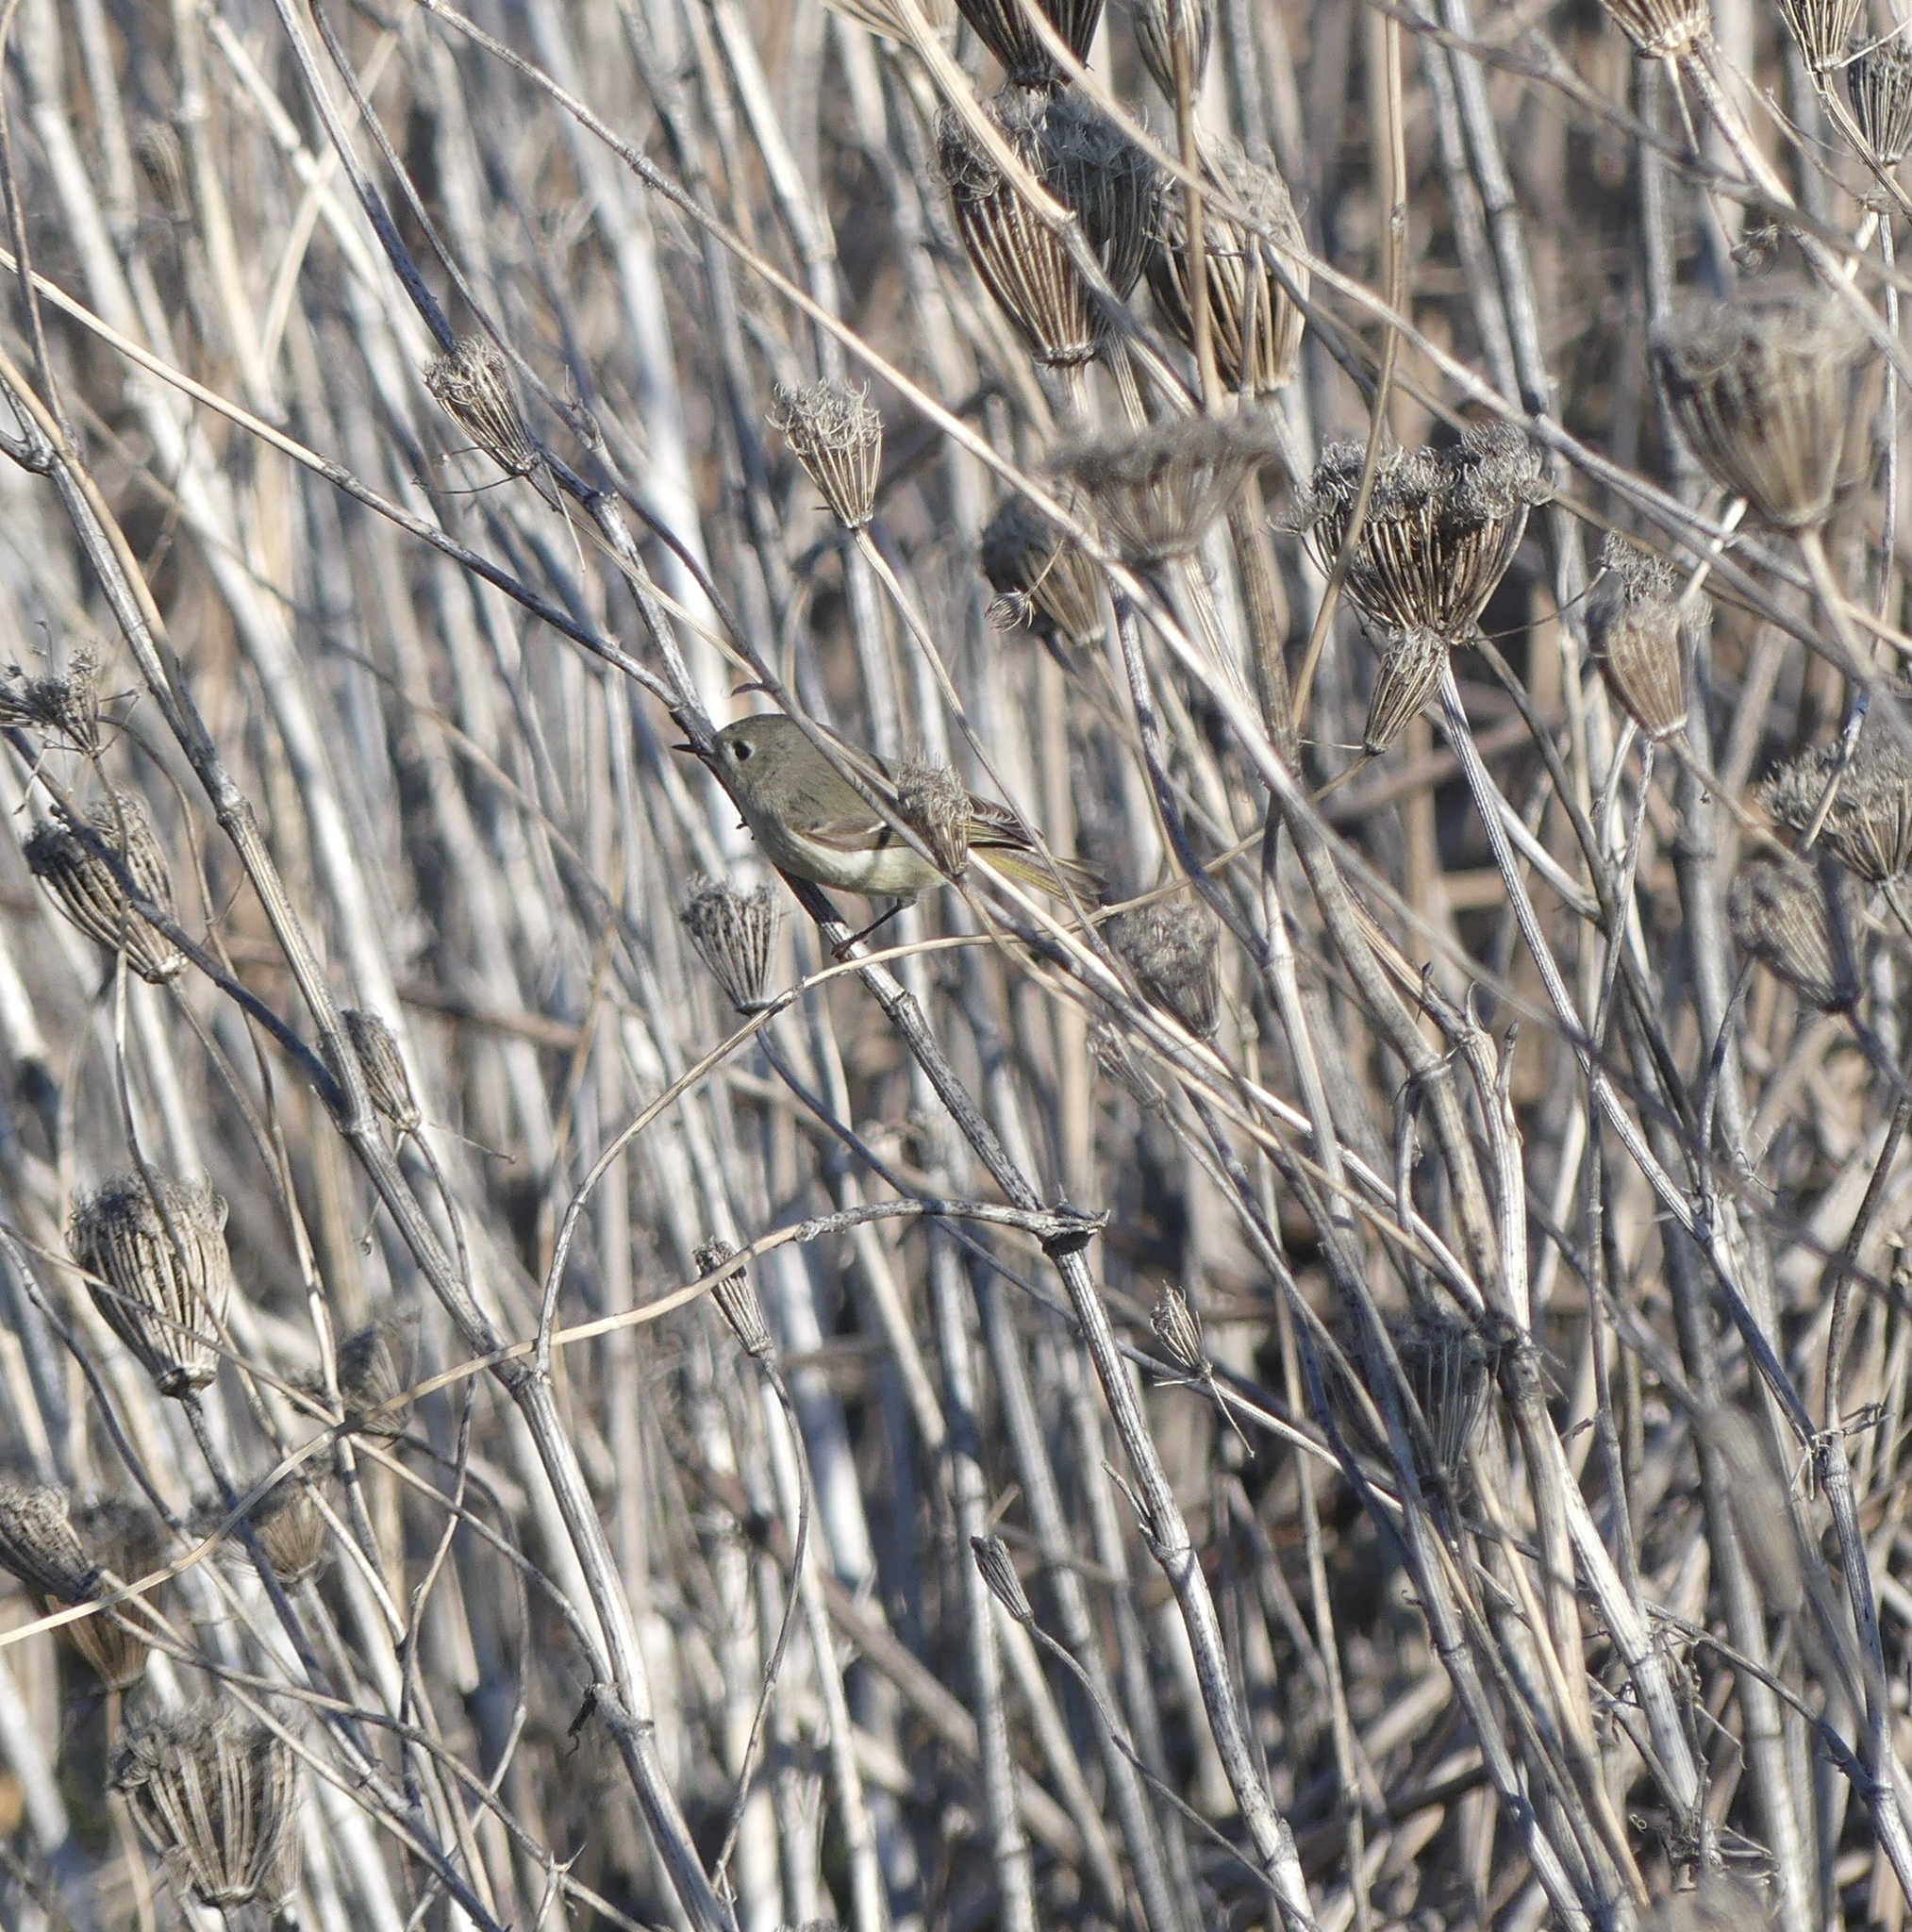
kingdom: Animalia
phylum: Chordata
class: Aves
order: Passeriformes
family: Regulidae
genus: Regulus
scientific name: Regulus calendula
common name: Ruby-crowned kinglet
